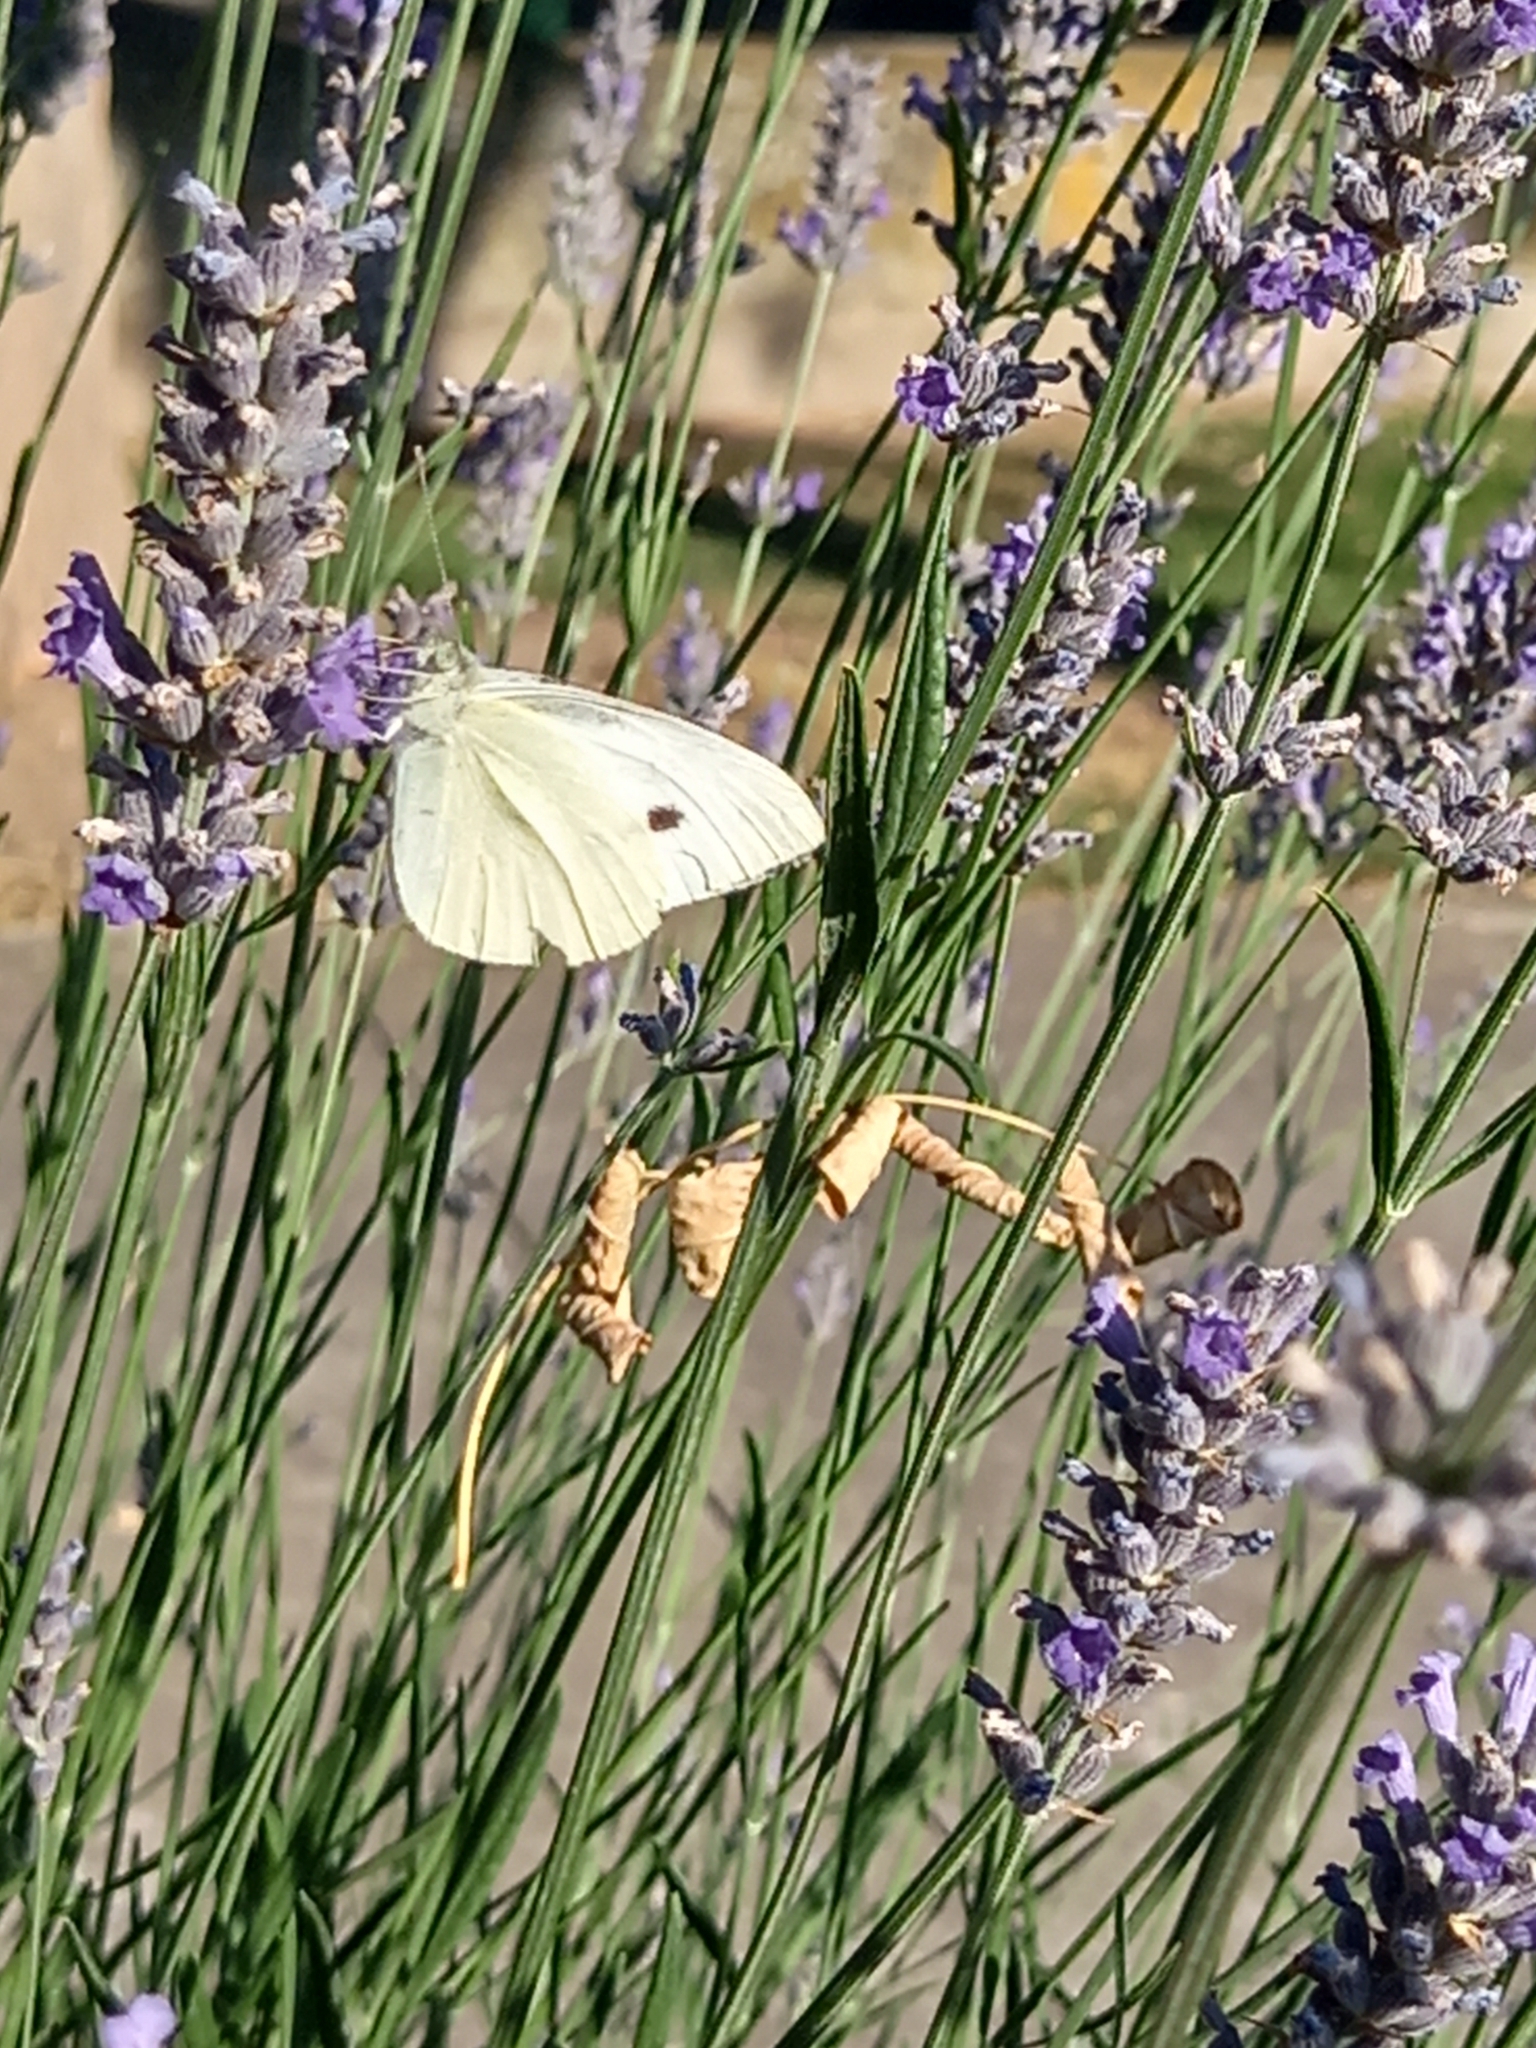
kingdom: Animalia
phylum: Arthropoda
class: Insecta
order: Lepidoptera
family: Pieridae
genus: Pieris
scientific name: Pieris rapae
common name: Small white
